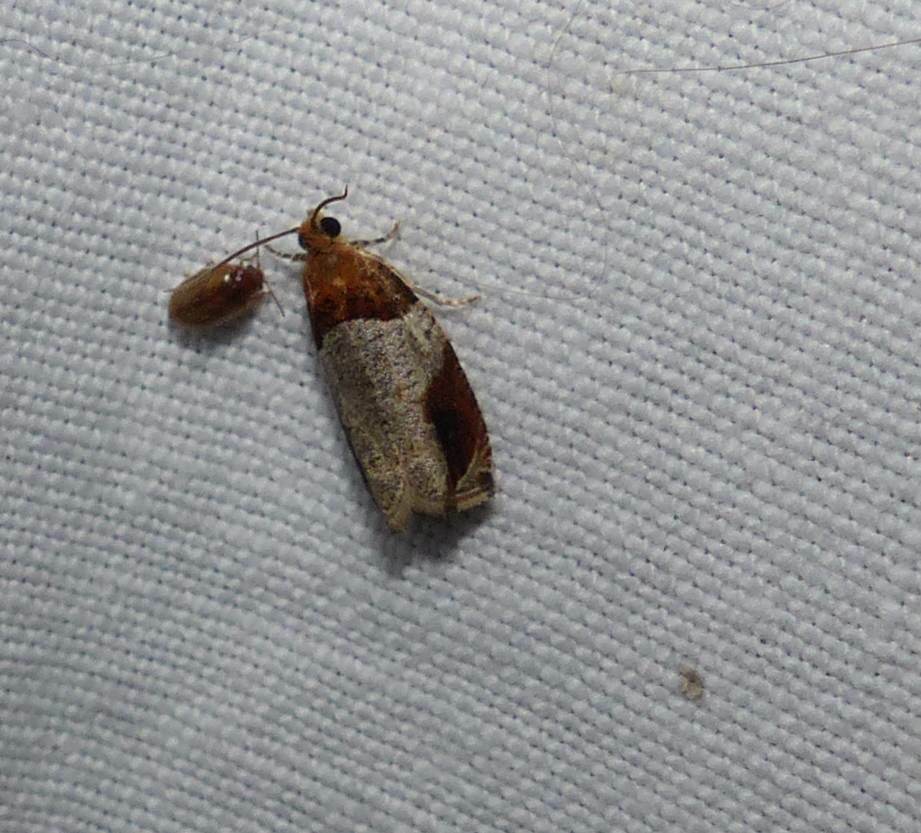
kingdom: Animalia
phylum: Arthropoda
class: Insecta
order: Lepidoptera
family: Tortricidae
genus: Olethreutes
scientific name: Olethreutes ferriferana
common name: Hydrangea leaftier moth
